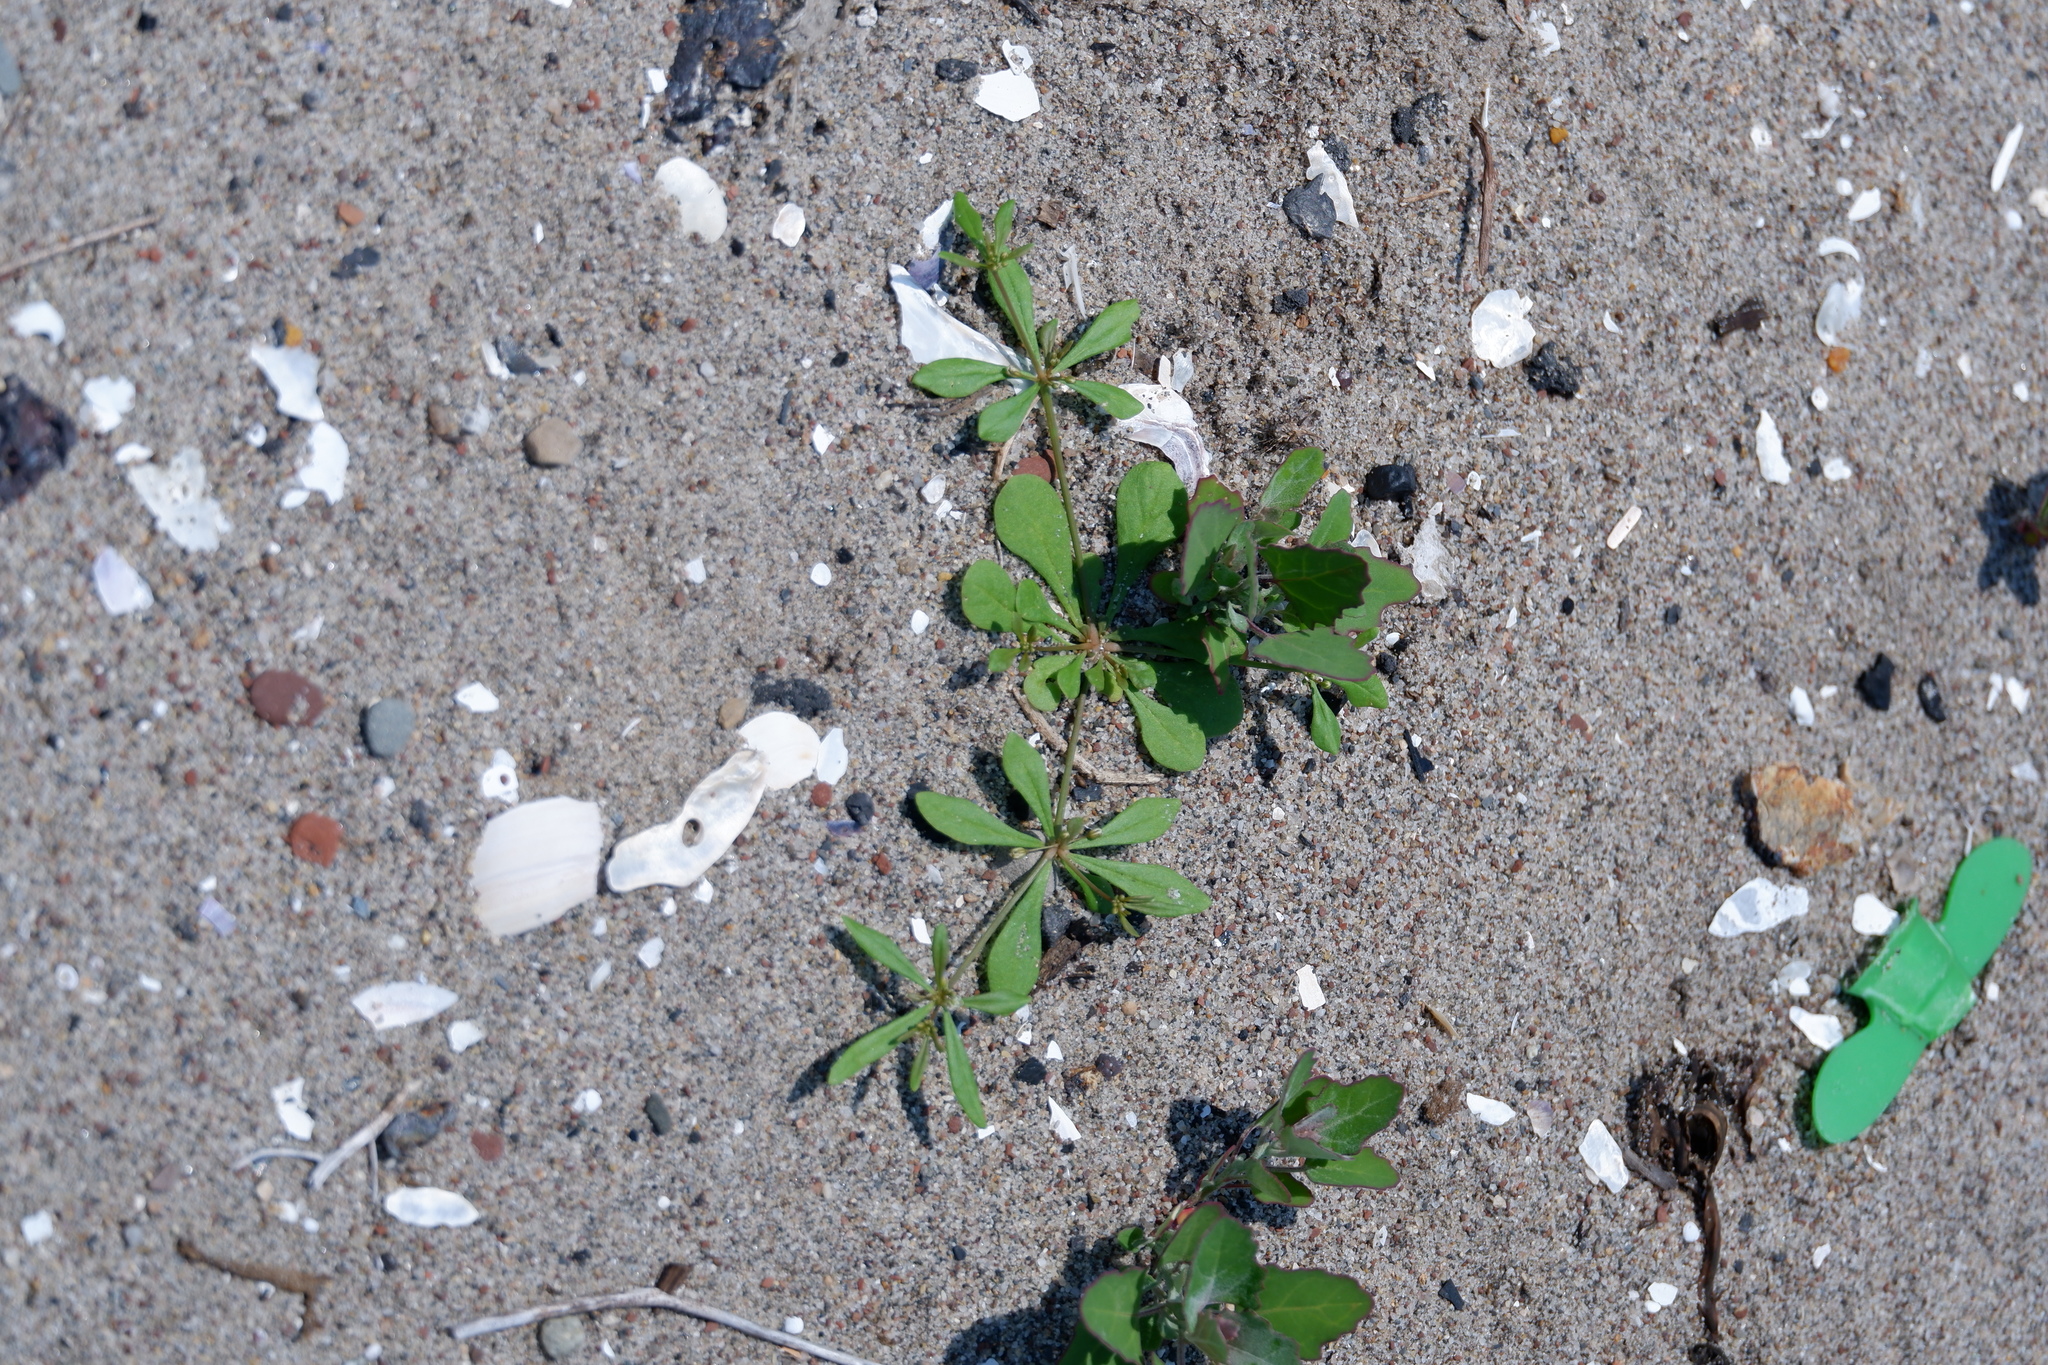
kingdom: Plantae
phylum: Tracheophyta
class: Magnoliopsida
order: Caryophyllales
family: Molluginaceae
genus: Mollugo
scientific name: Mollugo verticillata
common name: Green carpetweed
